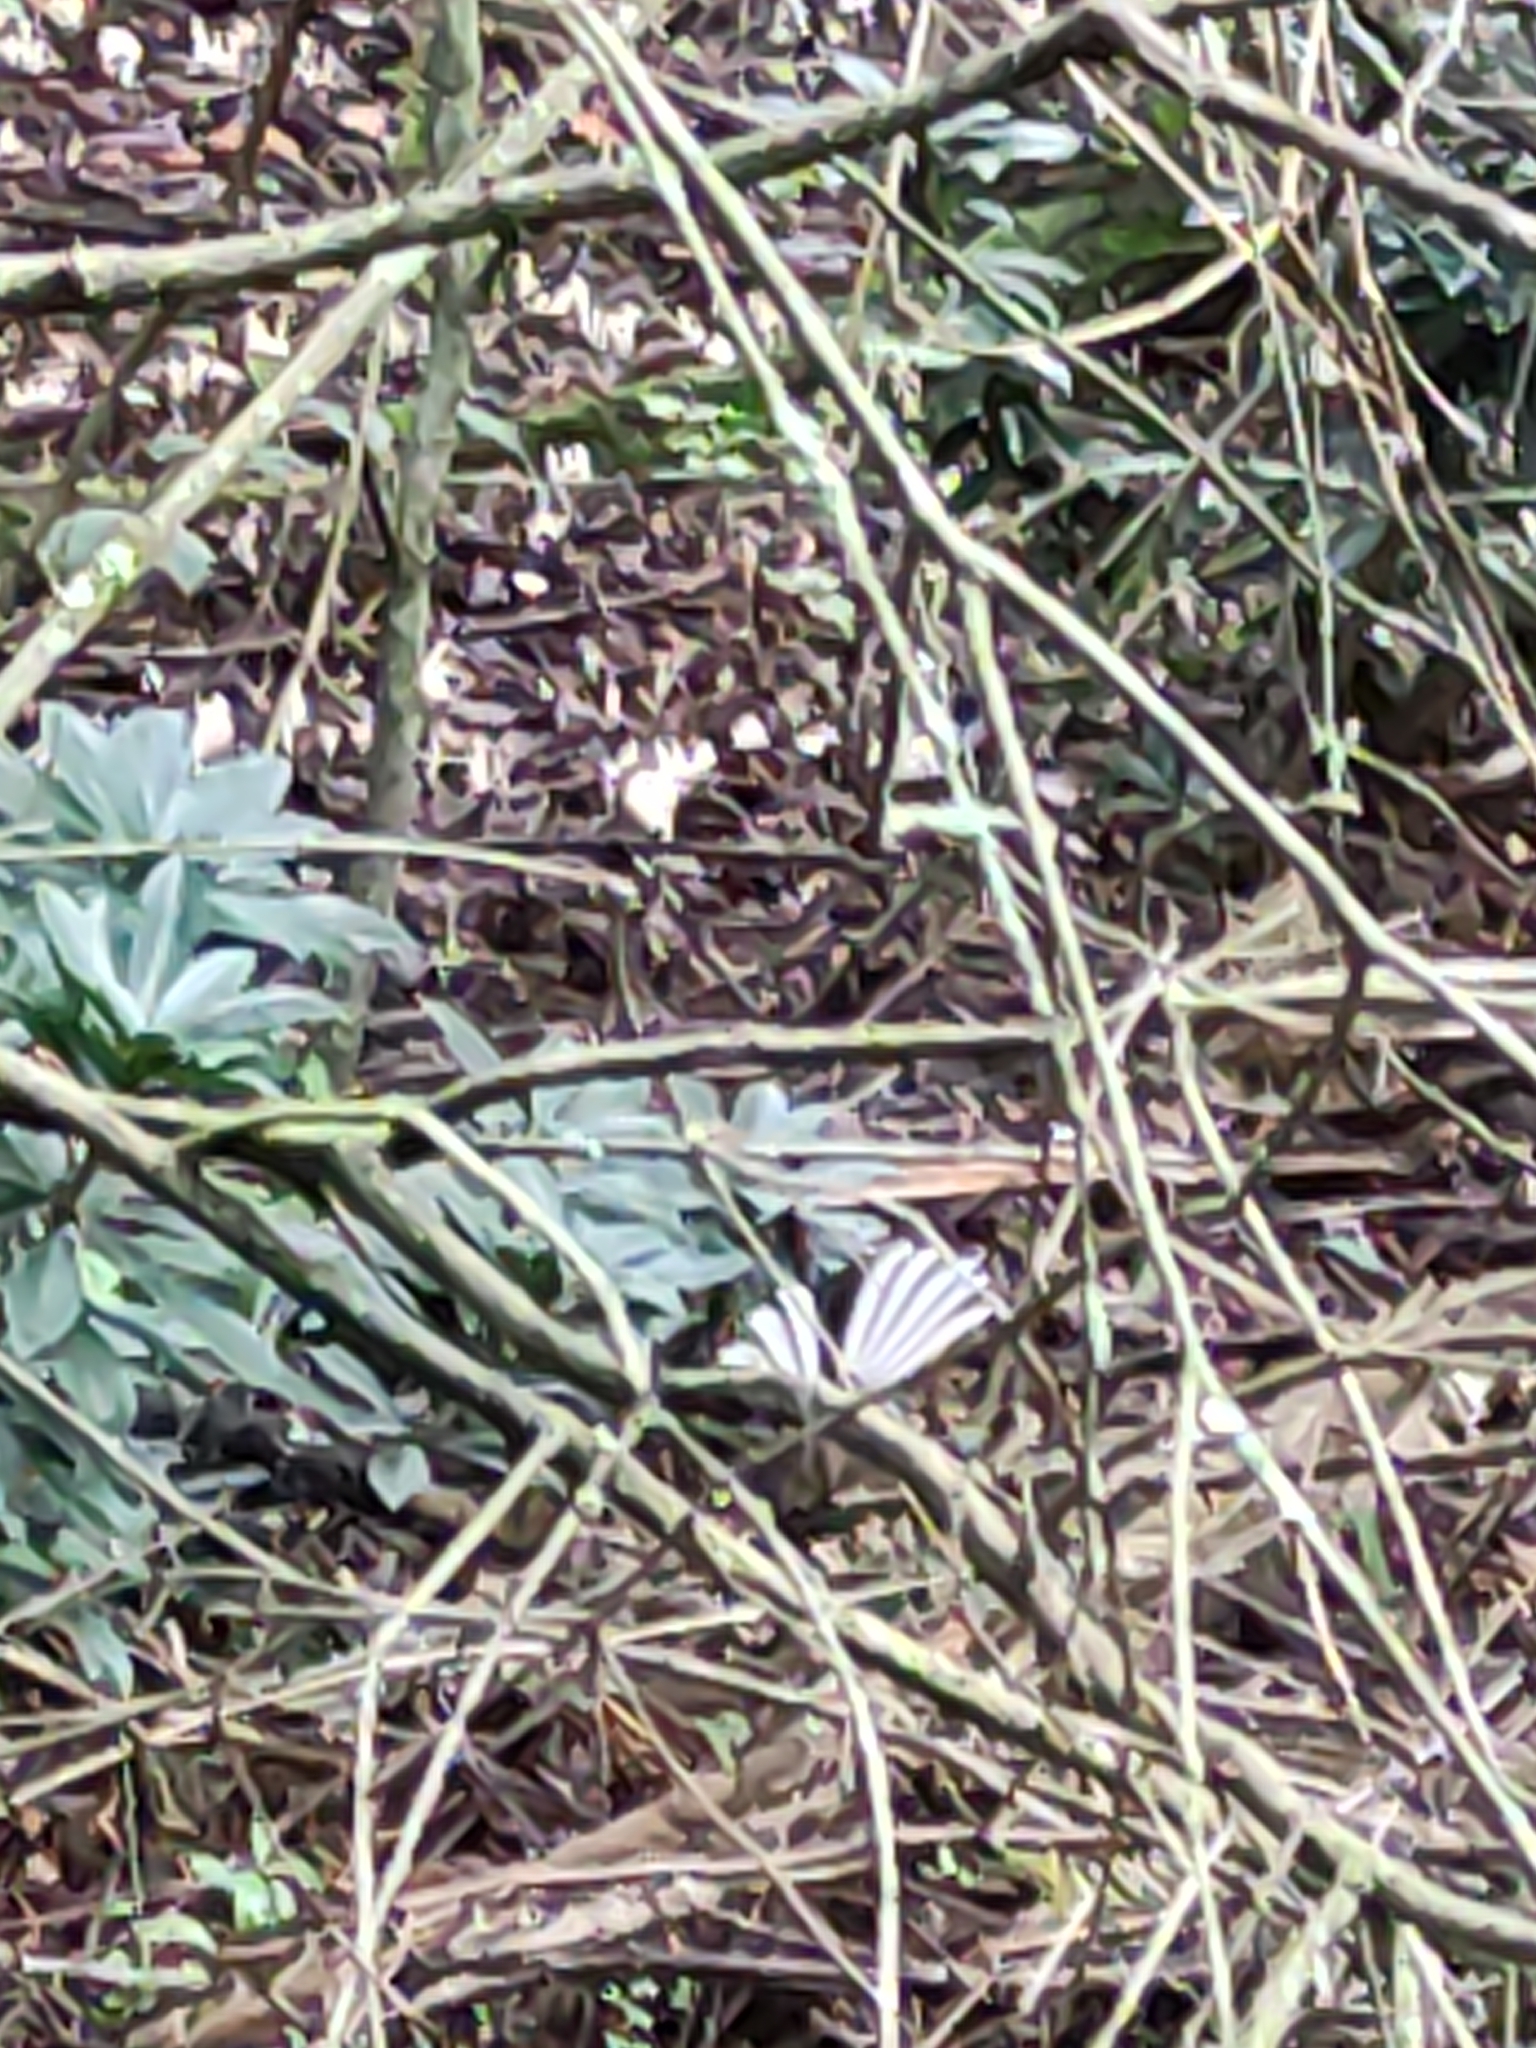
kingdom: Animalia
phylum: Chordata
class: Aves
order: Passeriformes
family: Rhipiduridae
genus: Rhipidura
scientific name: Rhipidura fuliginosa
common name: New zealand fantail
